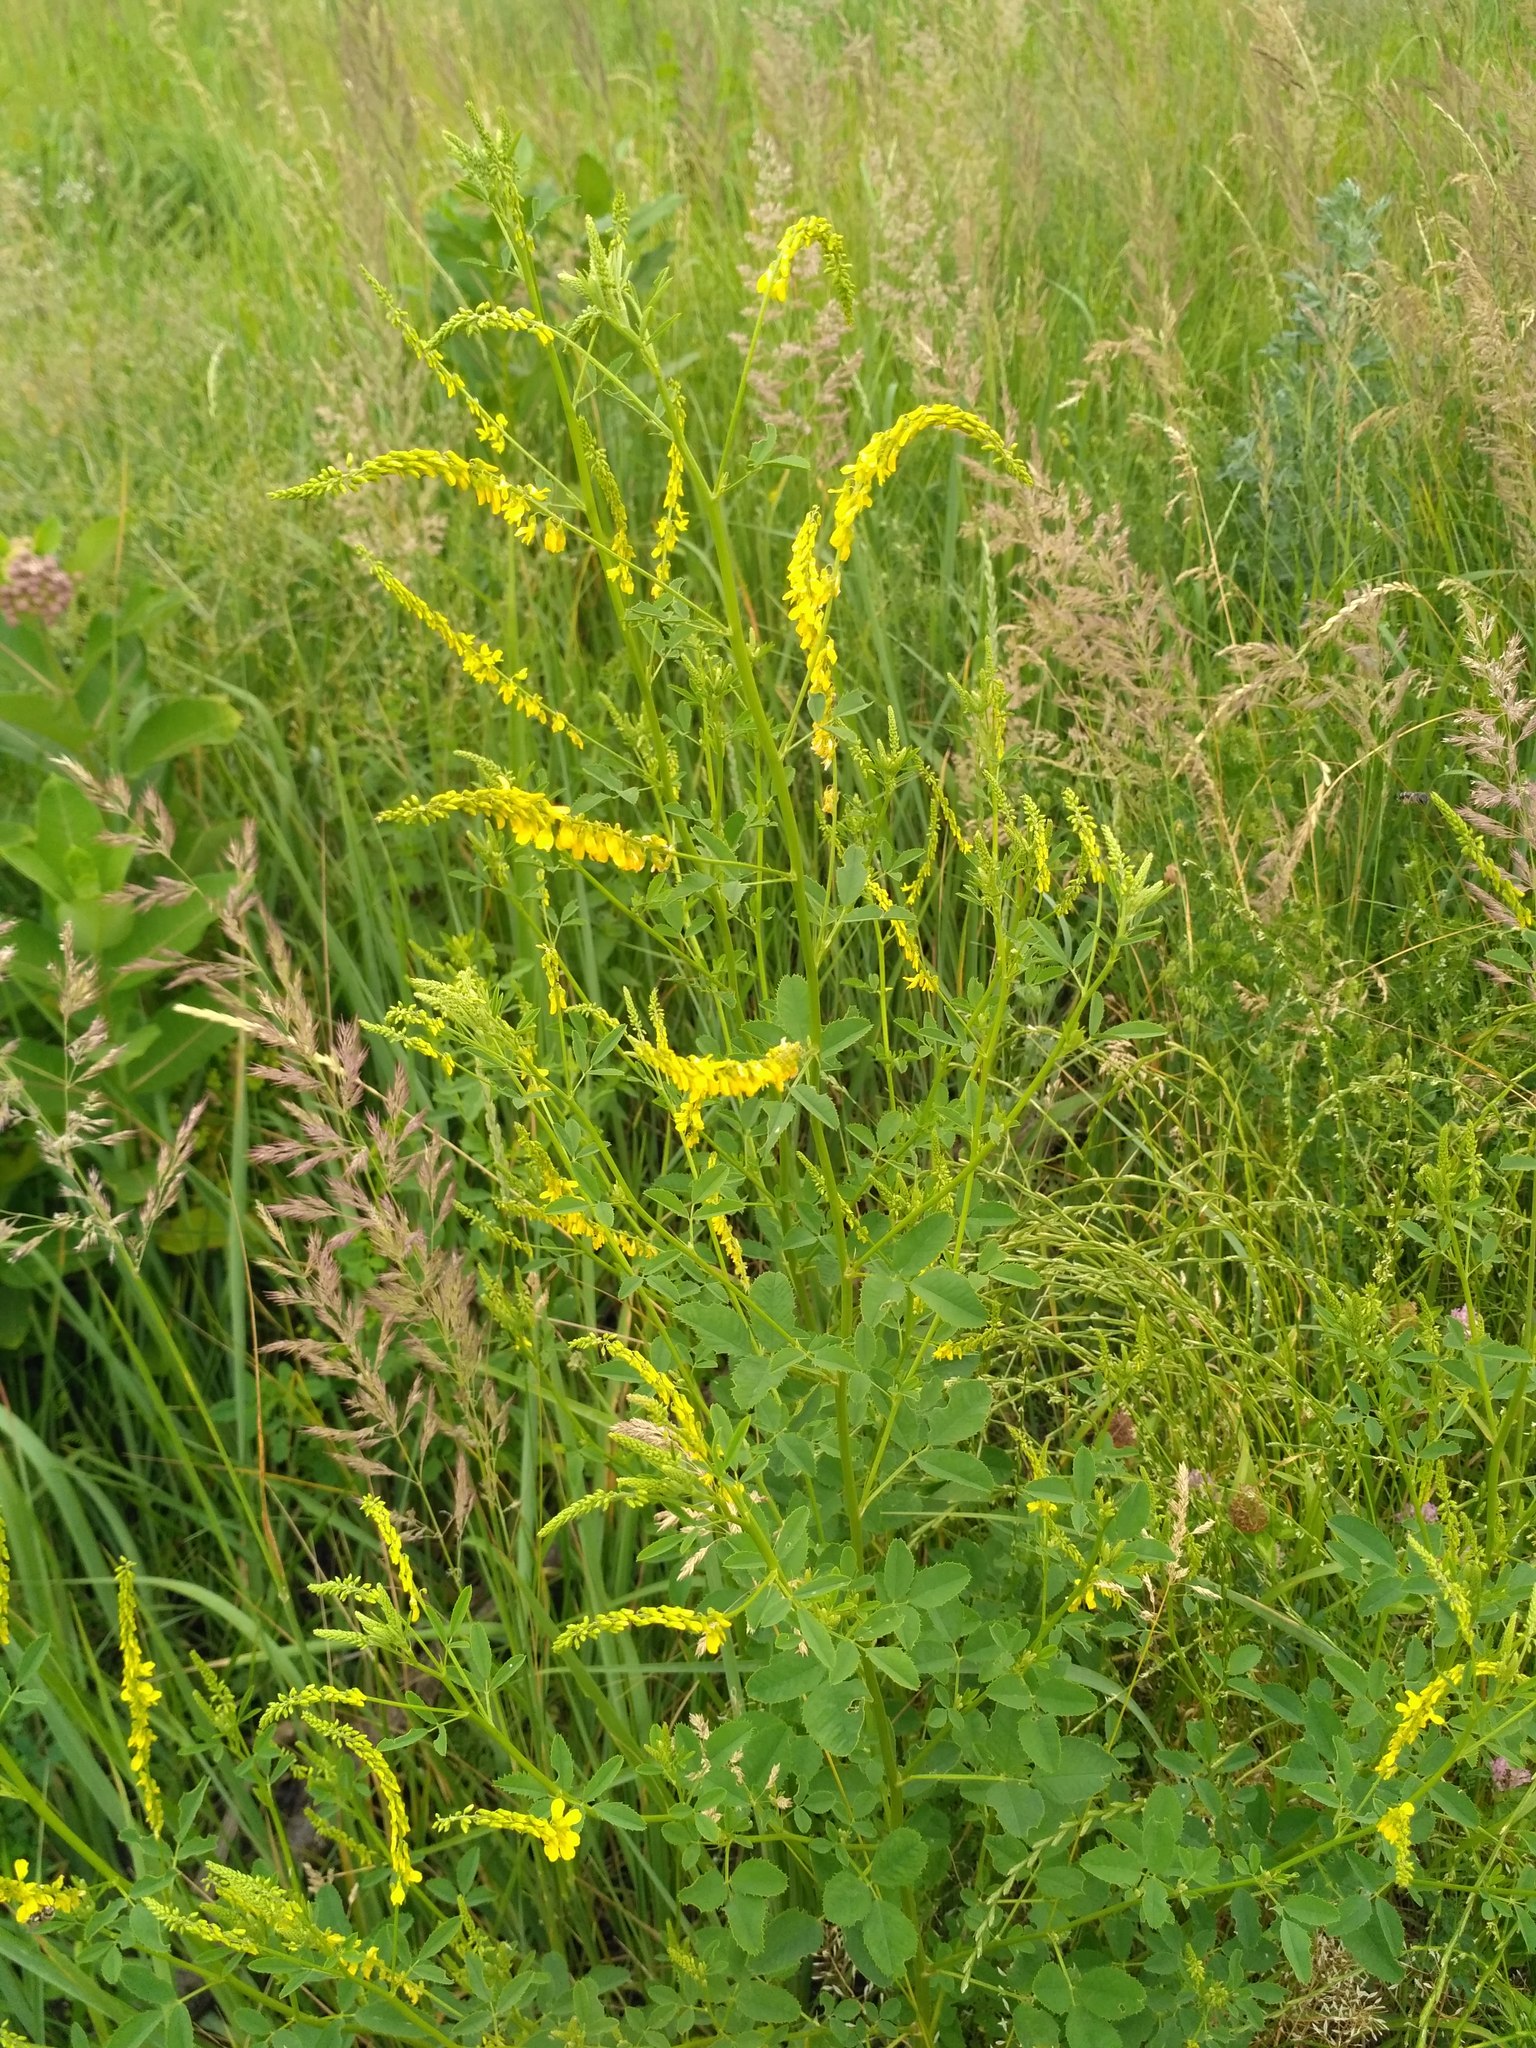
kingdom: Plantae
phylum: Tracheophyta
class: Magnoliopsida
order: Fabales
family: Fabaceae
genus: Melilotus
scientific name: Melilotus officinalis
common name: Sweetclover
